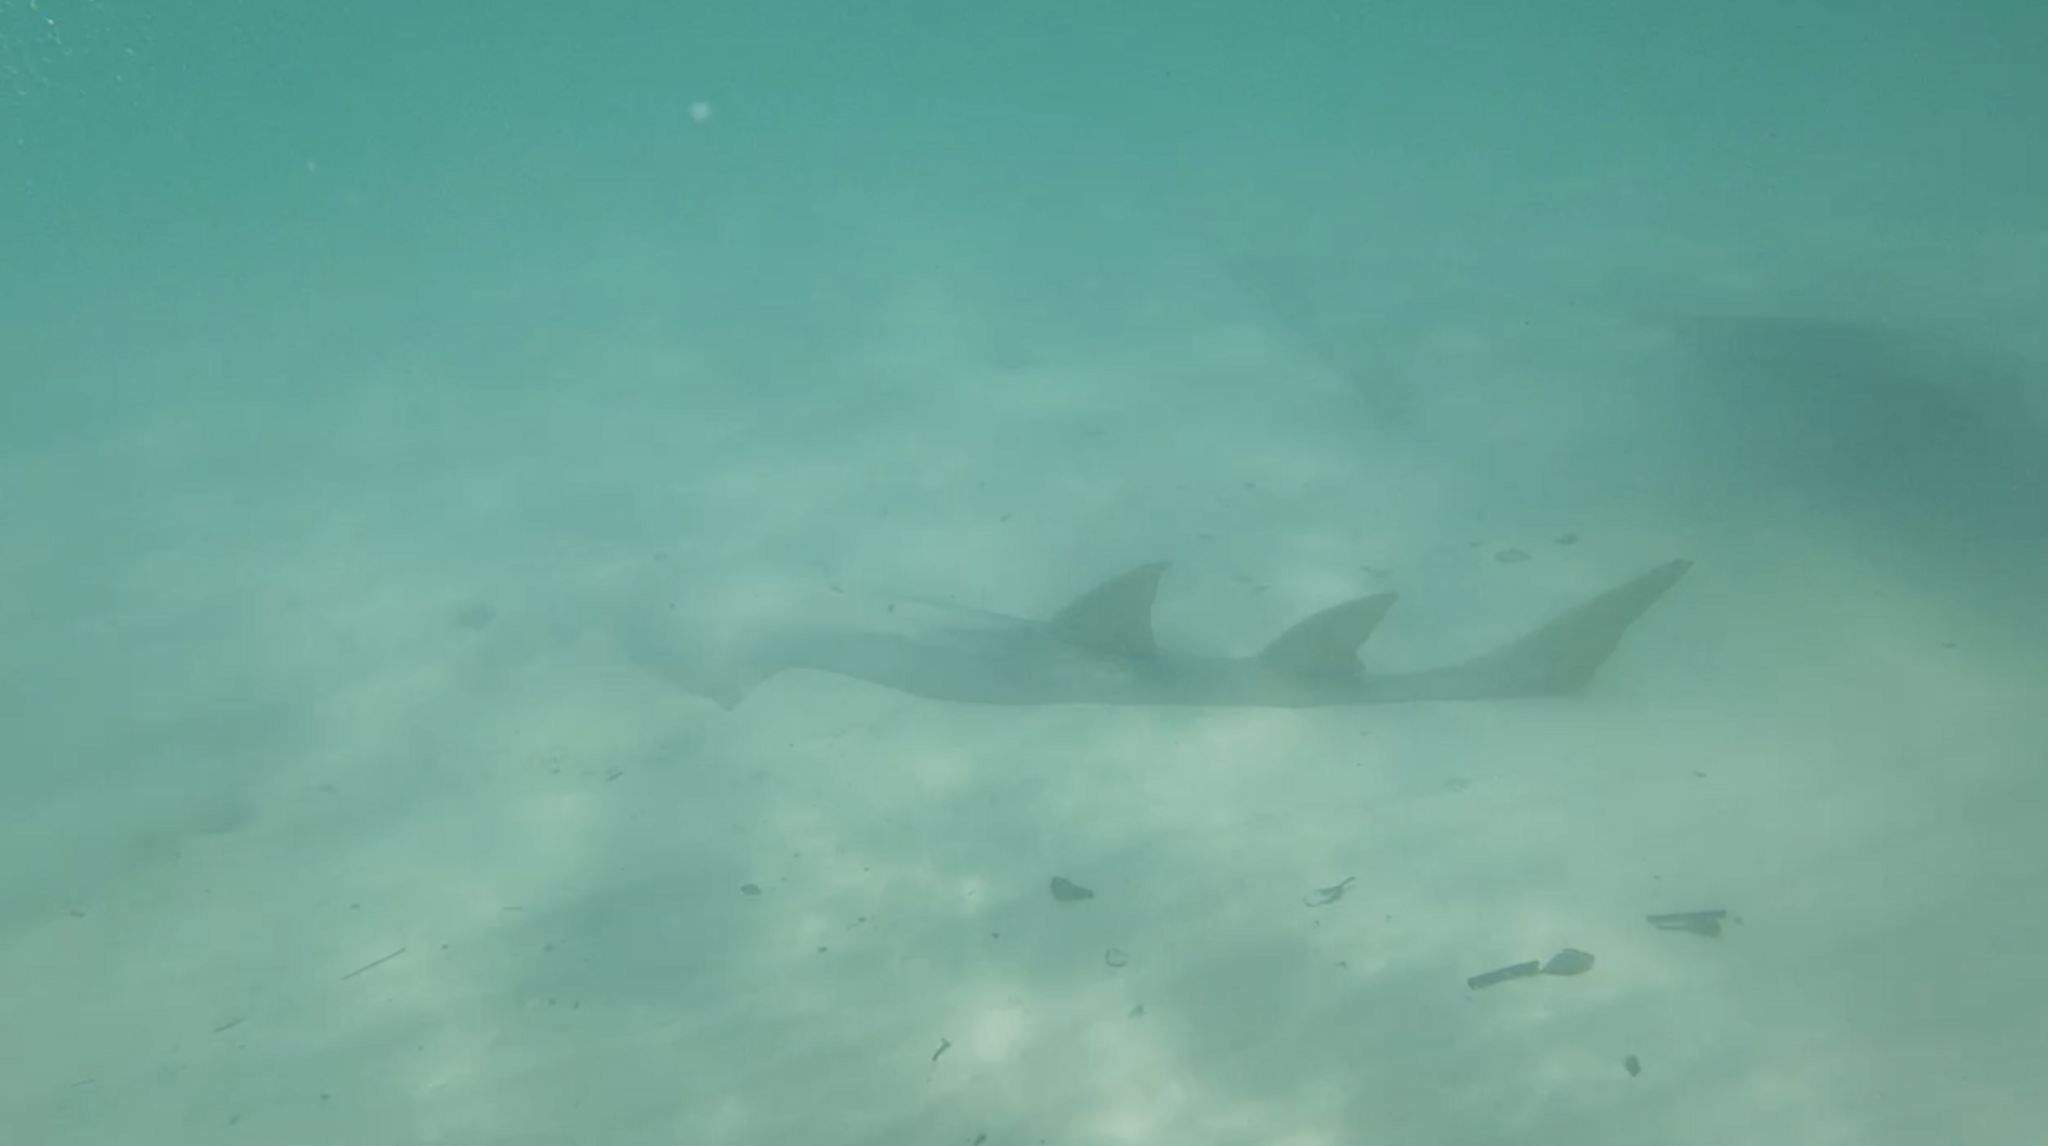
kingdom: Animalia
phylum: Chordata
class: Elasmobranchii
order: Rhinopristiformes
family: Glaucostegidae
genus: Glaucostegus
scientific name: Glaucostegus typus
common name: Giant shovelnose ray
